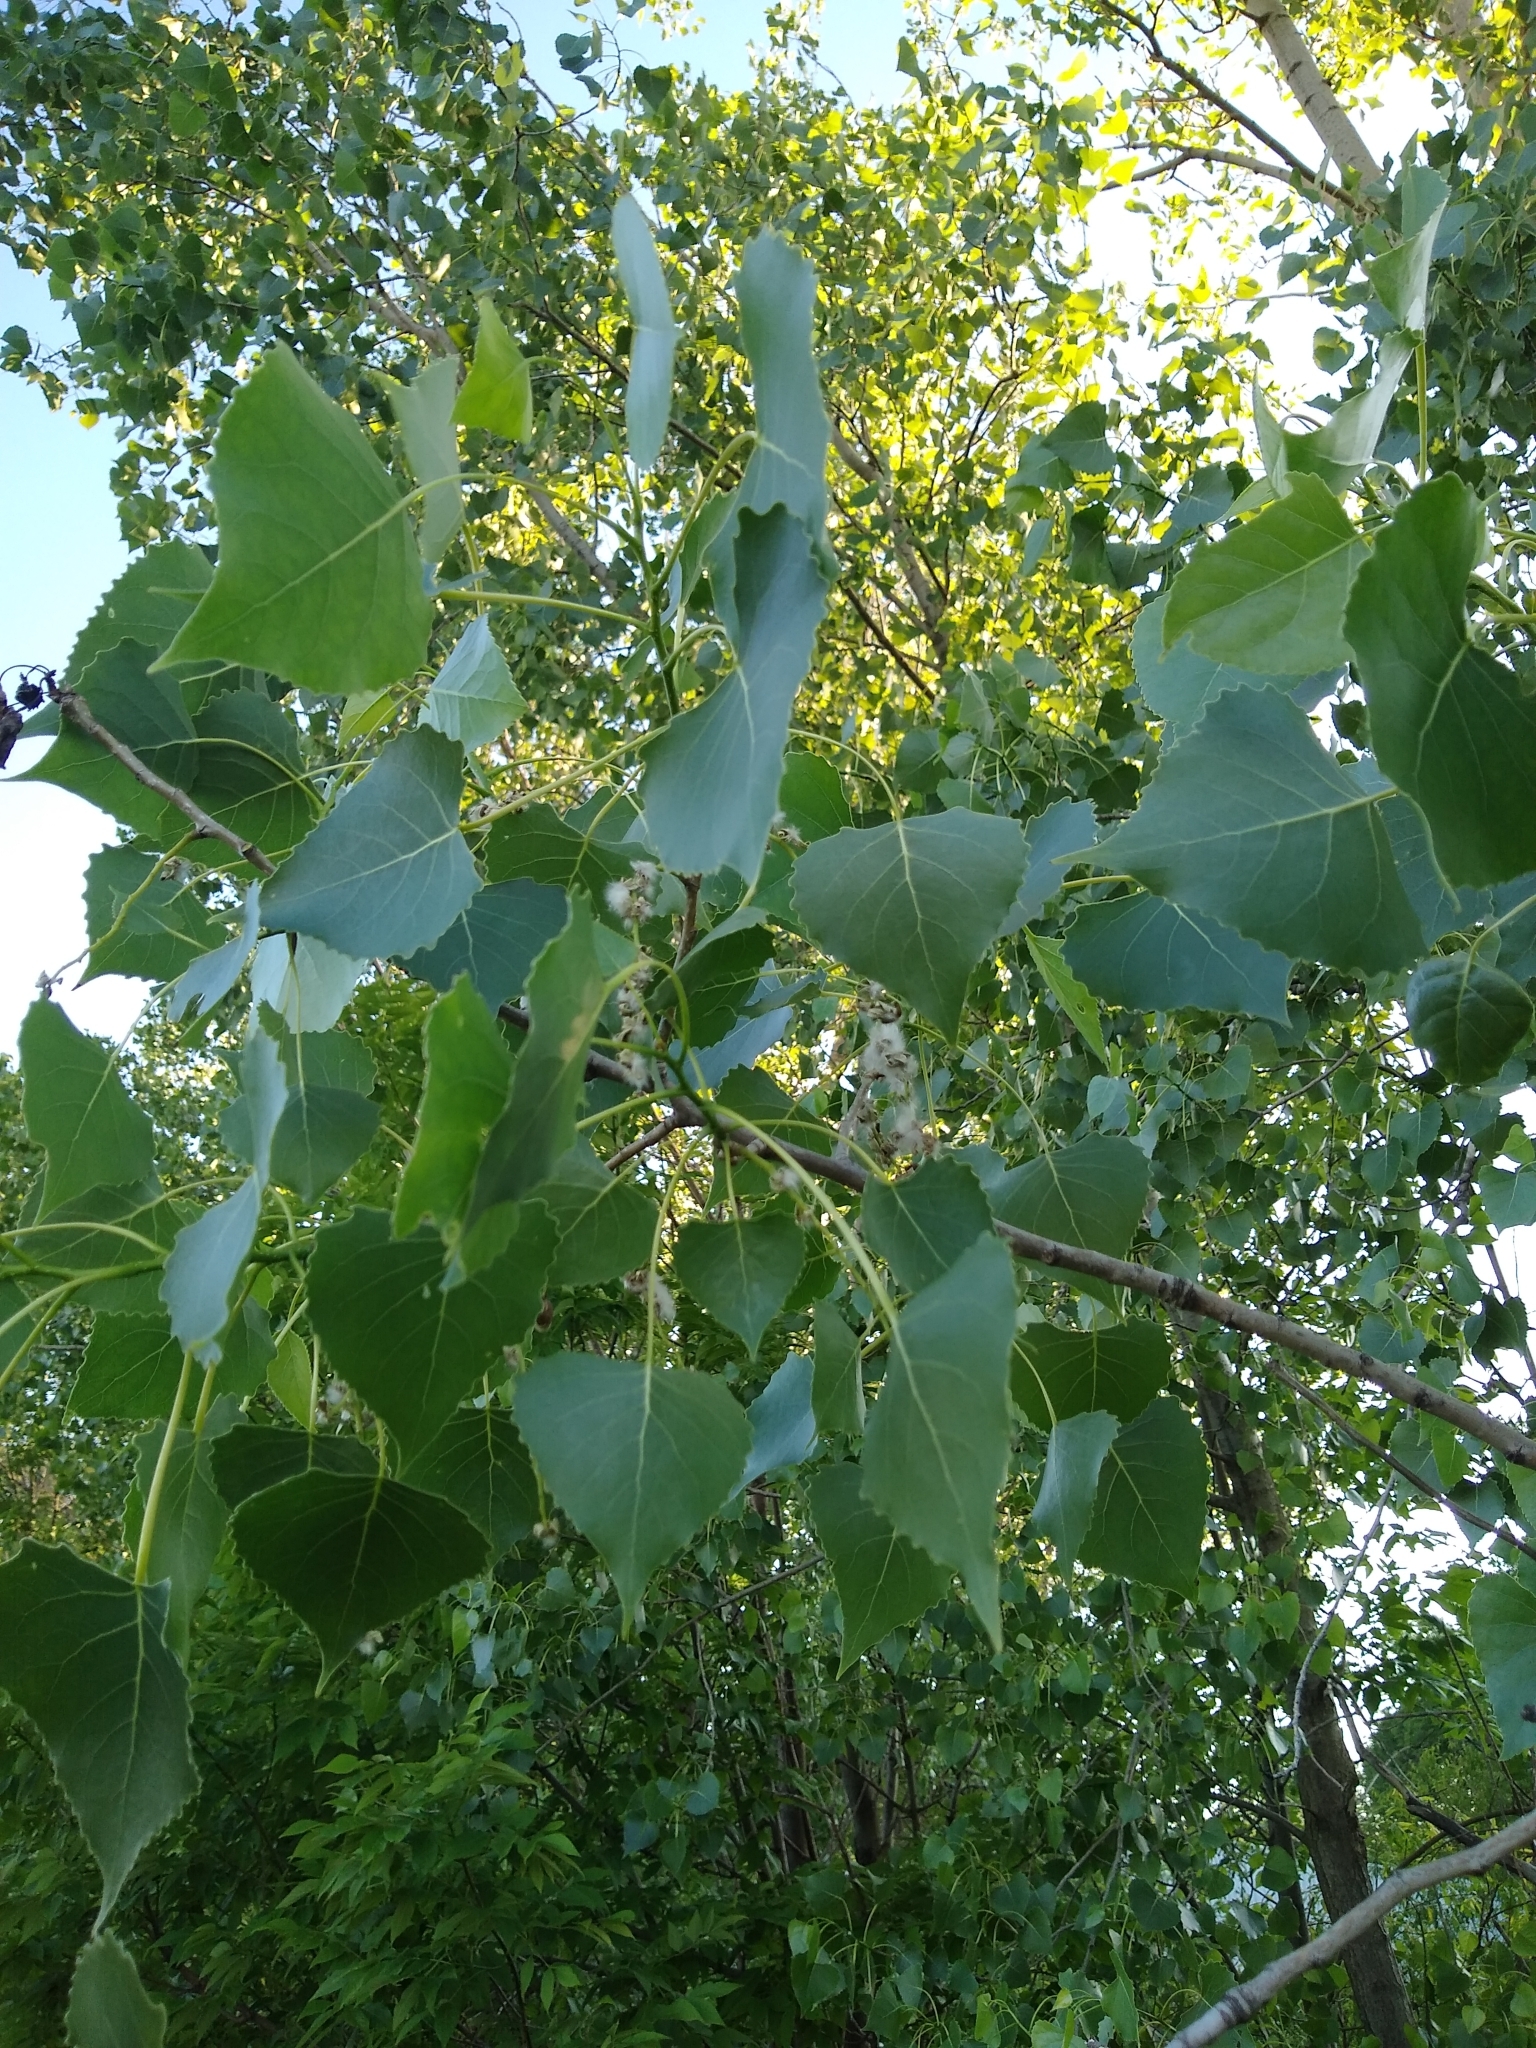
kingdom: Plantae
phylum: Tracheophyta
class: Magnoliopsida
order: Malpighiales
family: Salicaceae
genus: Populus
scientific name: Populus deltoides
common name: Eastern cottonwood
